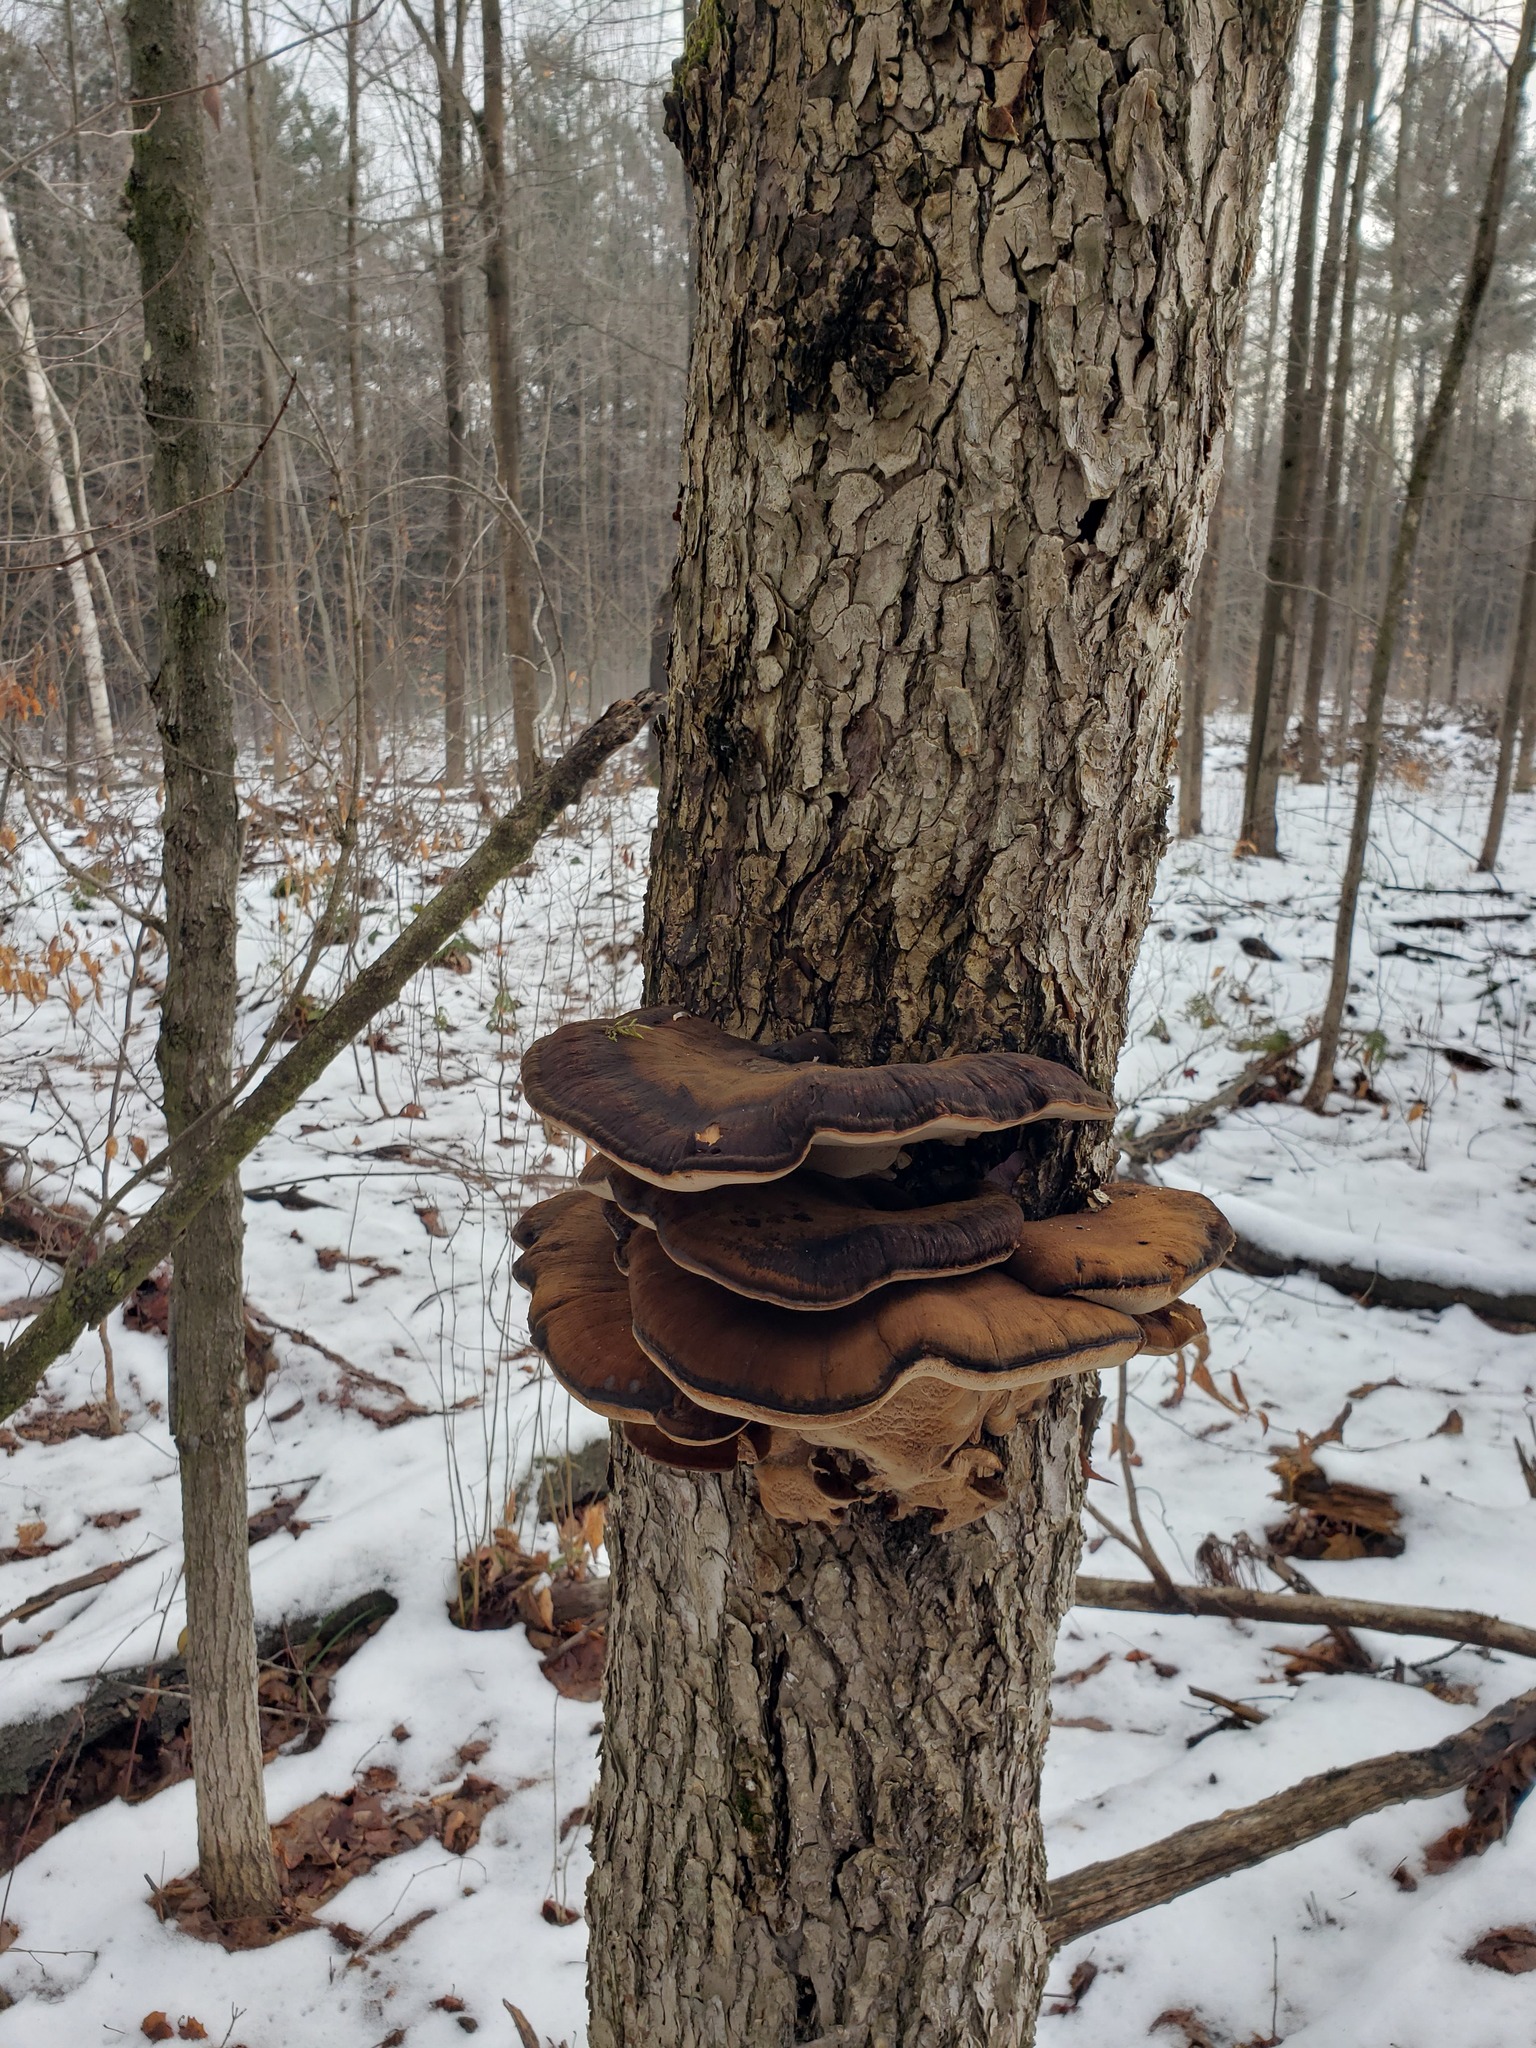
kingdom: Fungi
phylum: Basidiomycota
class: Agaricomycetes
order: Polyporales
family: Ischnodermataceae
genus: Ischnoderma
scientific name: Ischnoderma resinosum
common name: Resinous polypore
